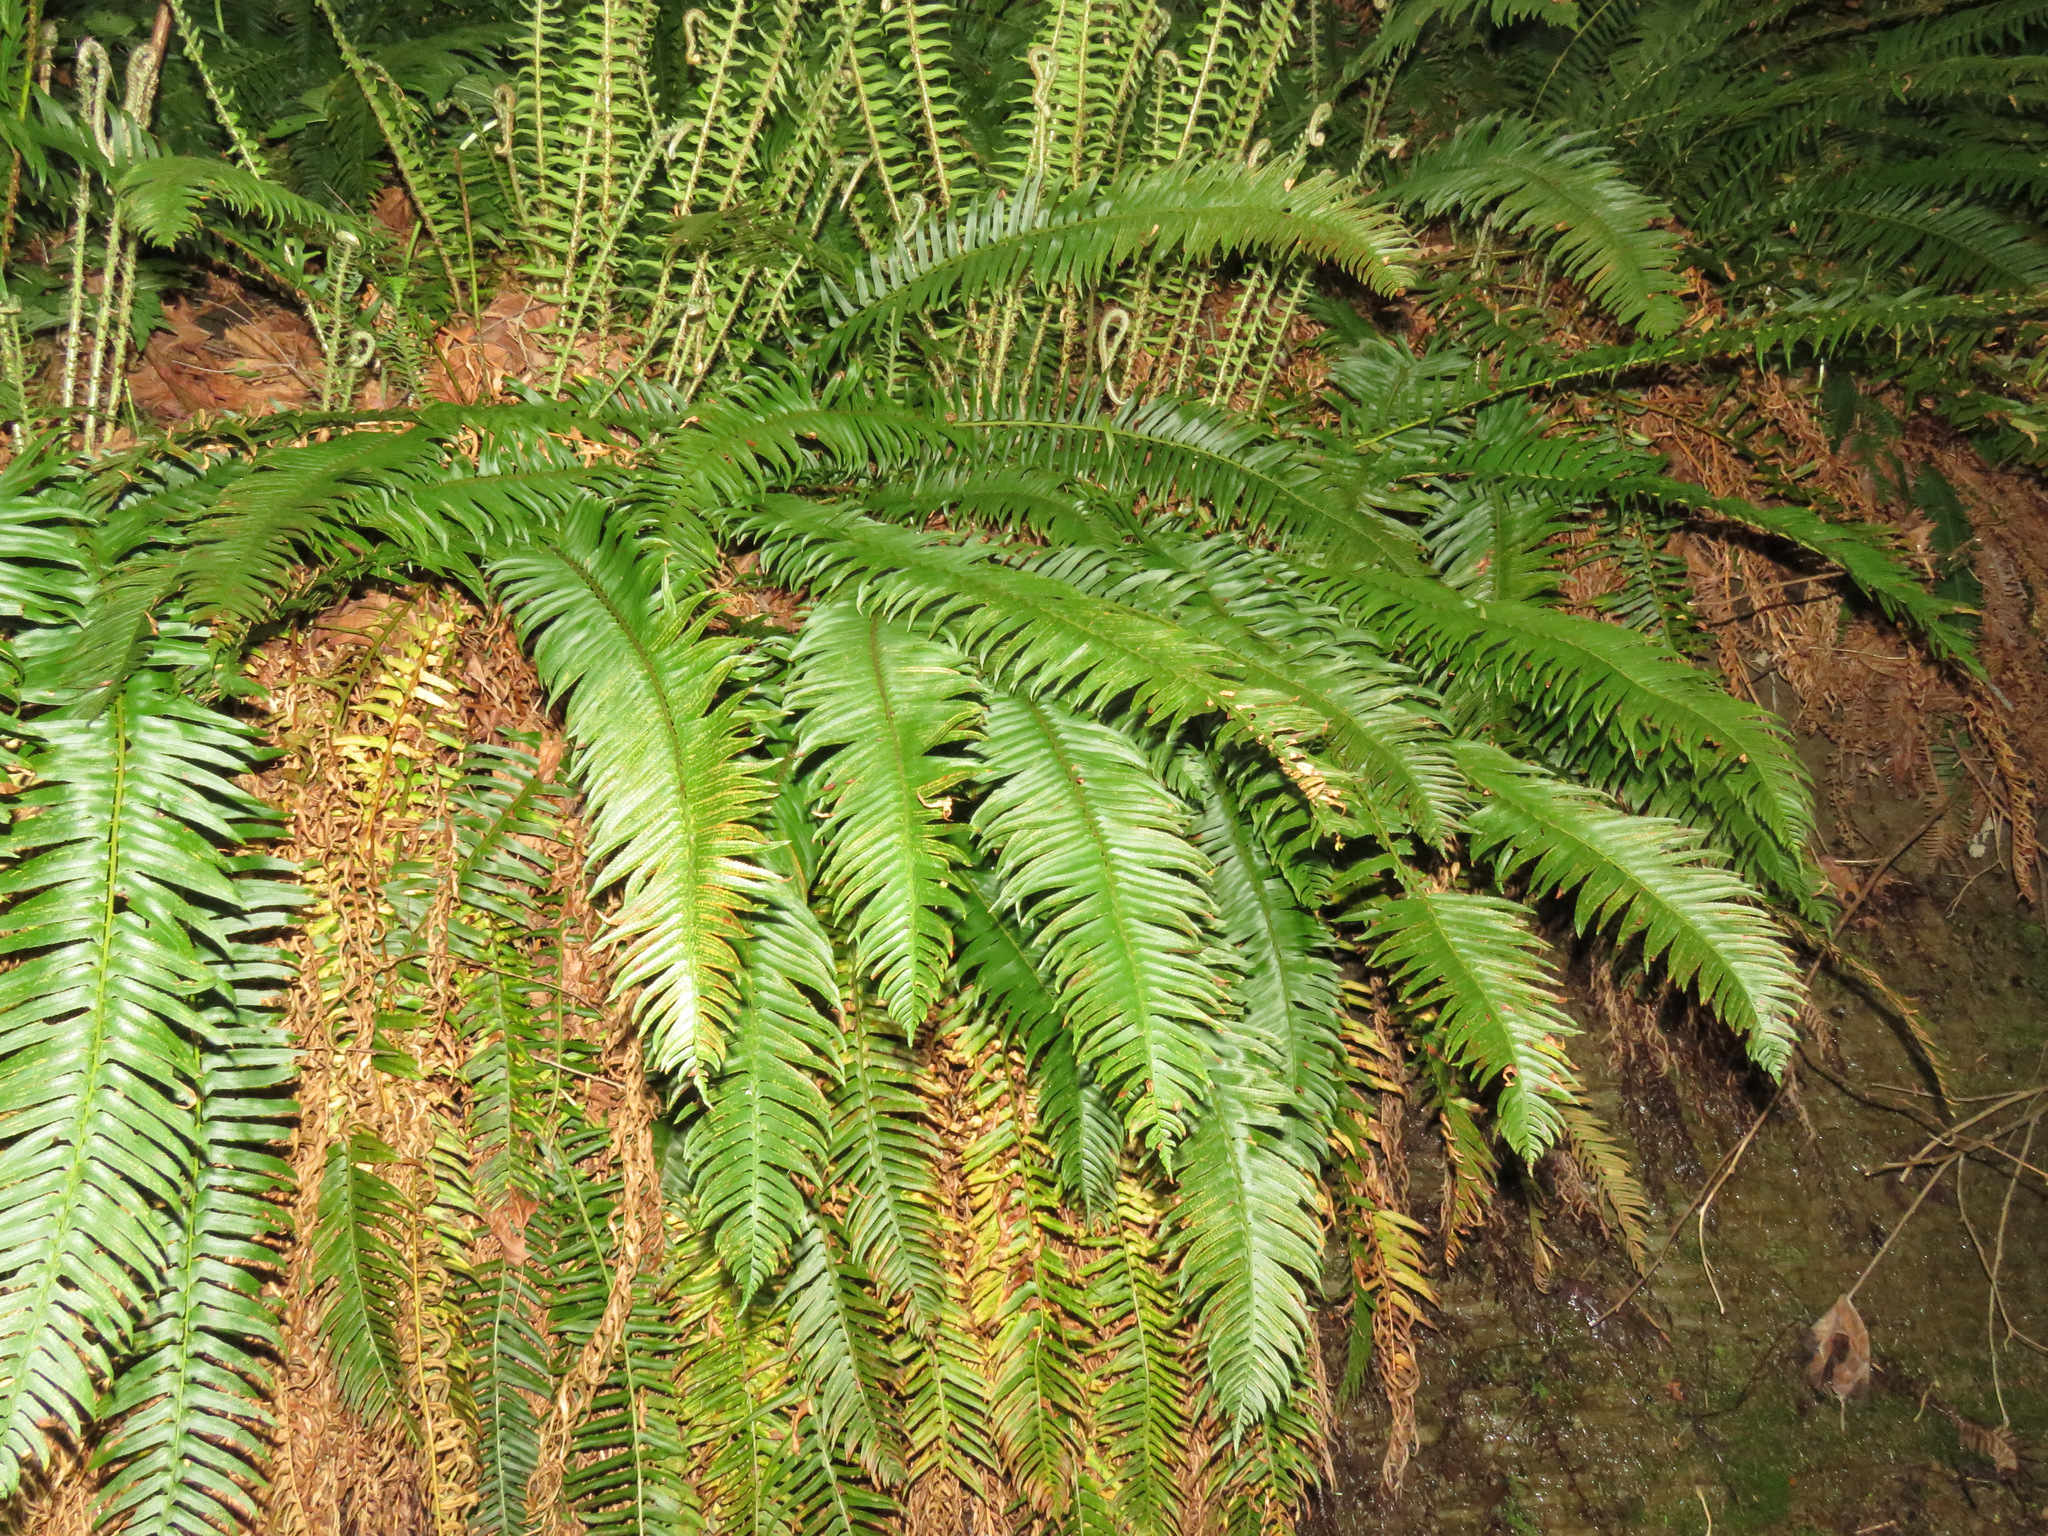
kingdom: Plantae
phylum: Tracheophyta
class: Polypodiopsida
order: Polypodiales
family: Dryopteridaceae
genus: Polystichum
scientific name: Polystichum munitum
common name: Western sword-fern
